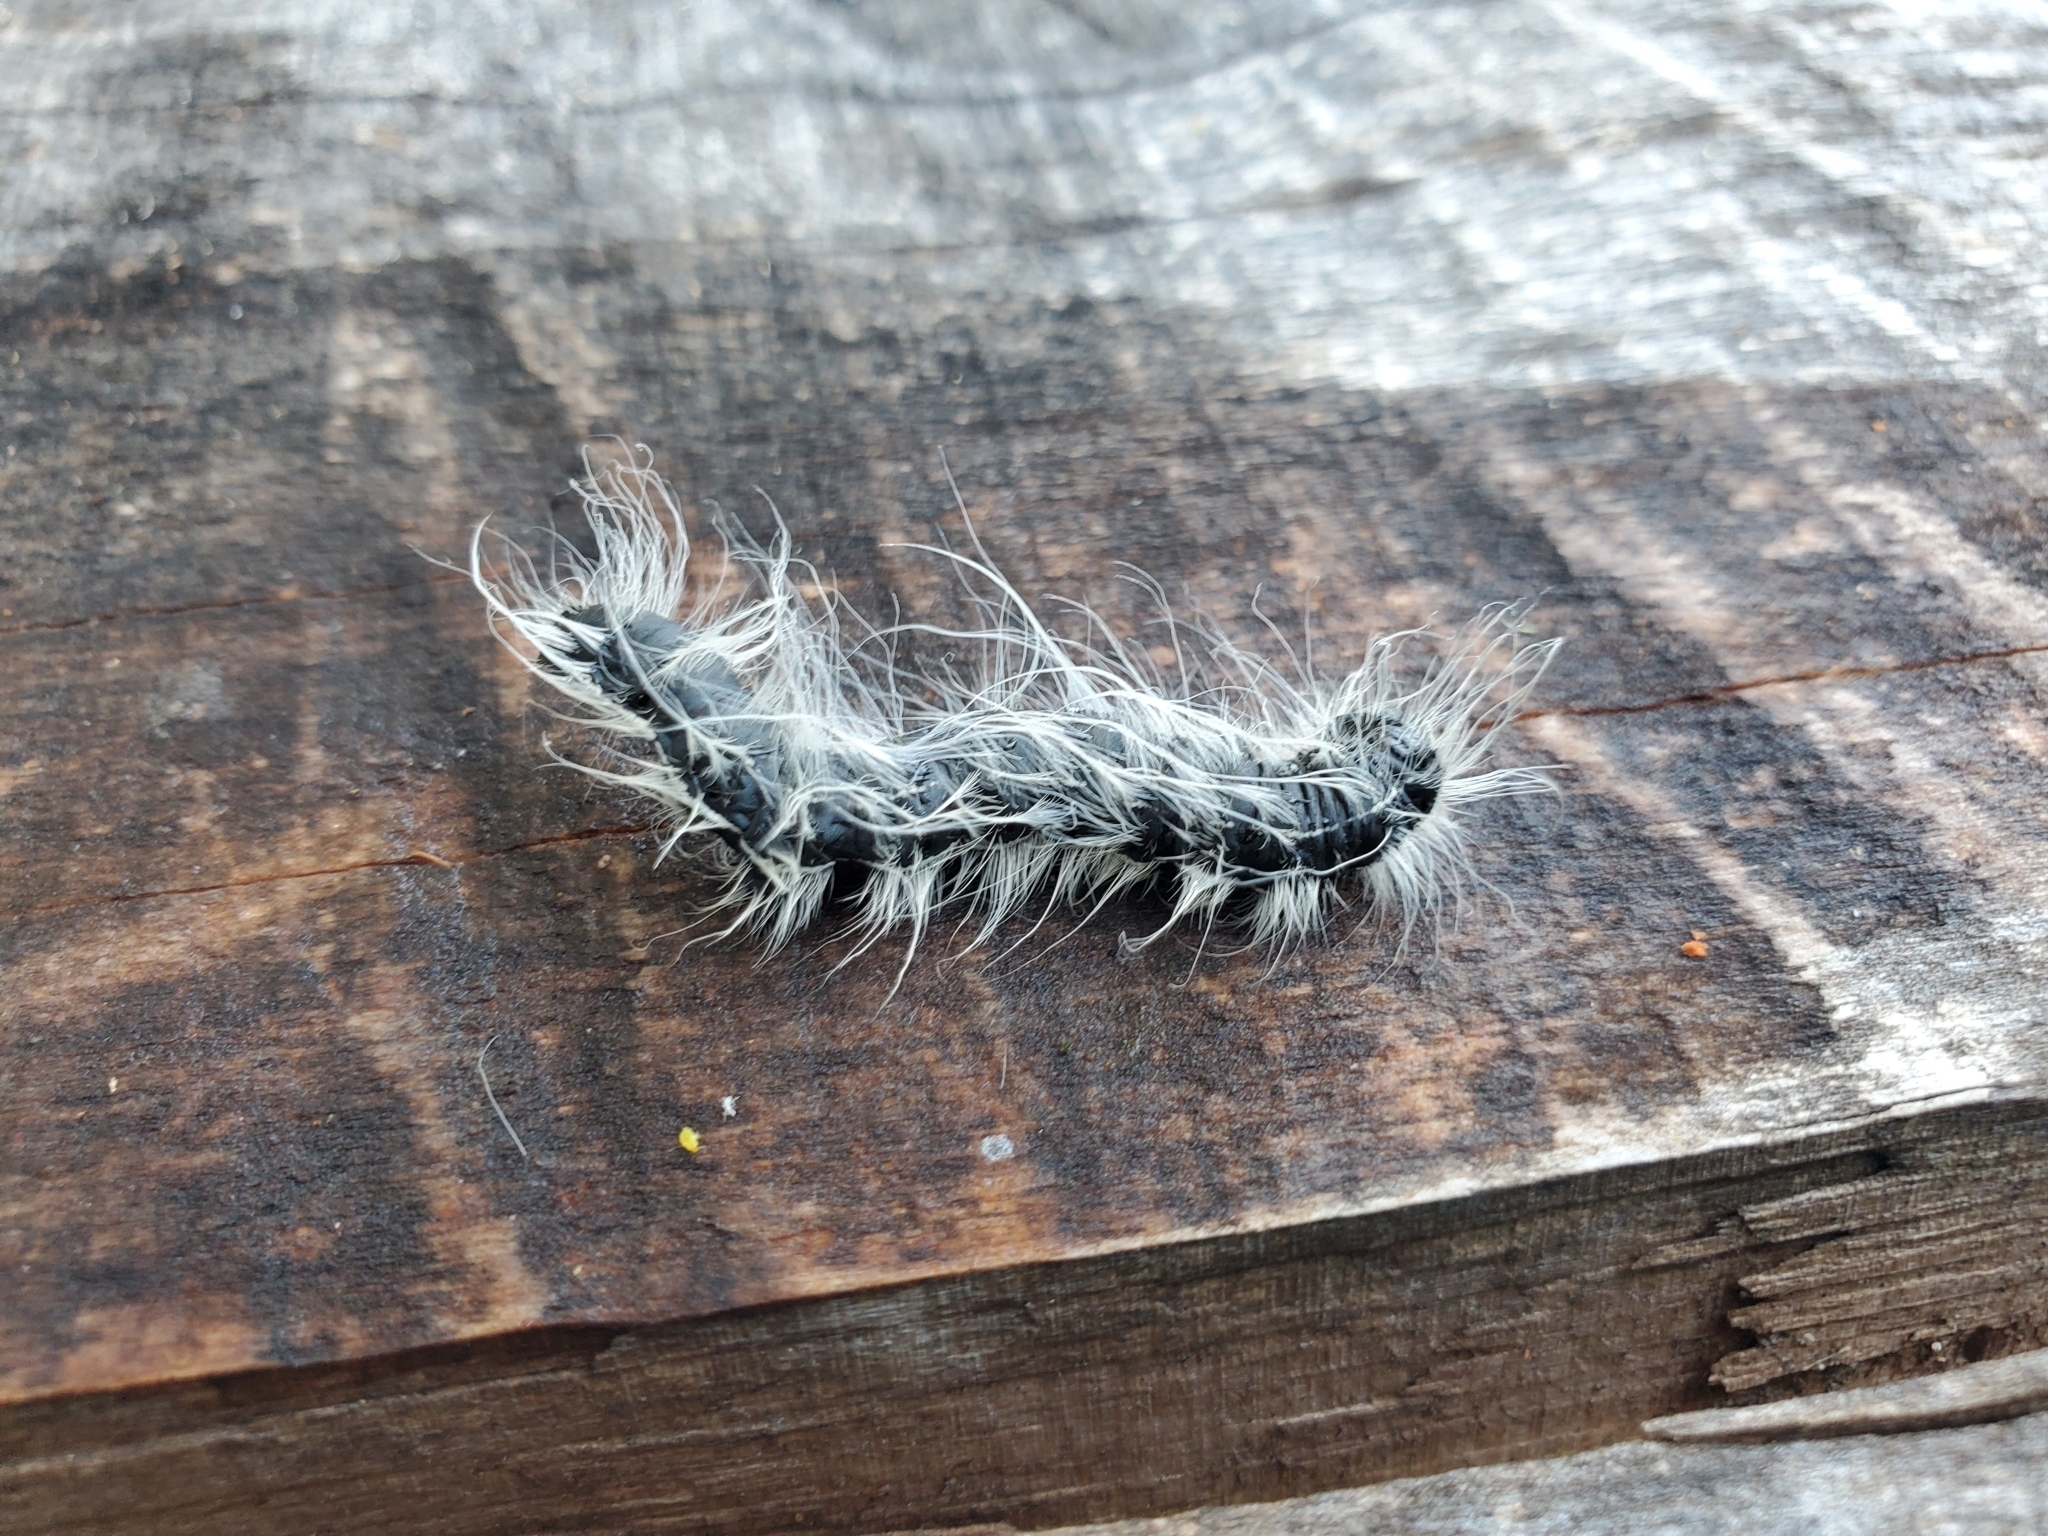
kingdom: Animalia
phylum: Arthropoda
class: Insecta
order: Lepidoptera
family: Notodontidae
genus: Datana
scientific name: Datana integerrima
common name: Walnut caterpillar
